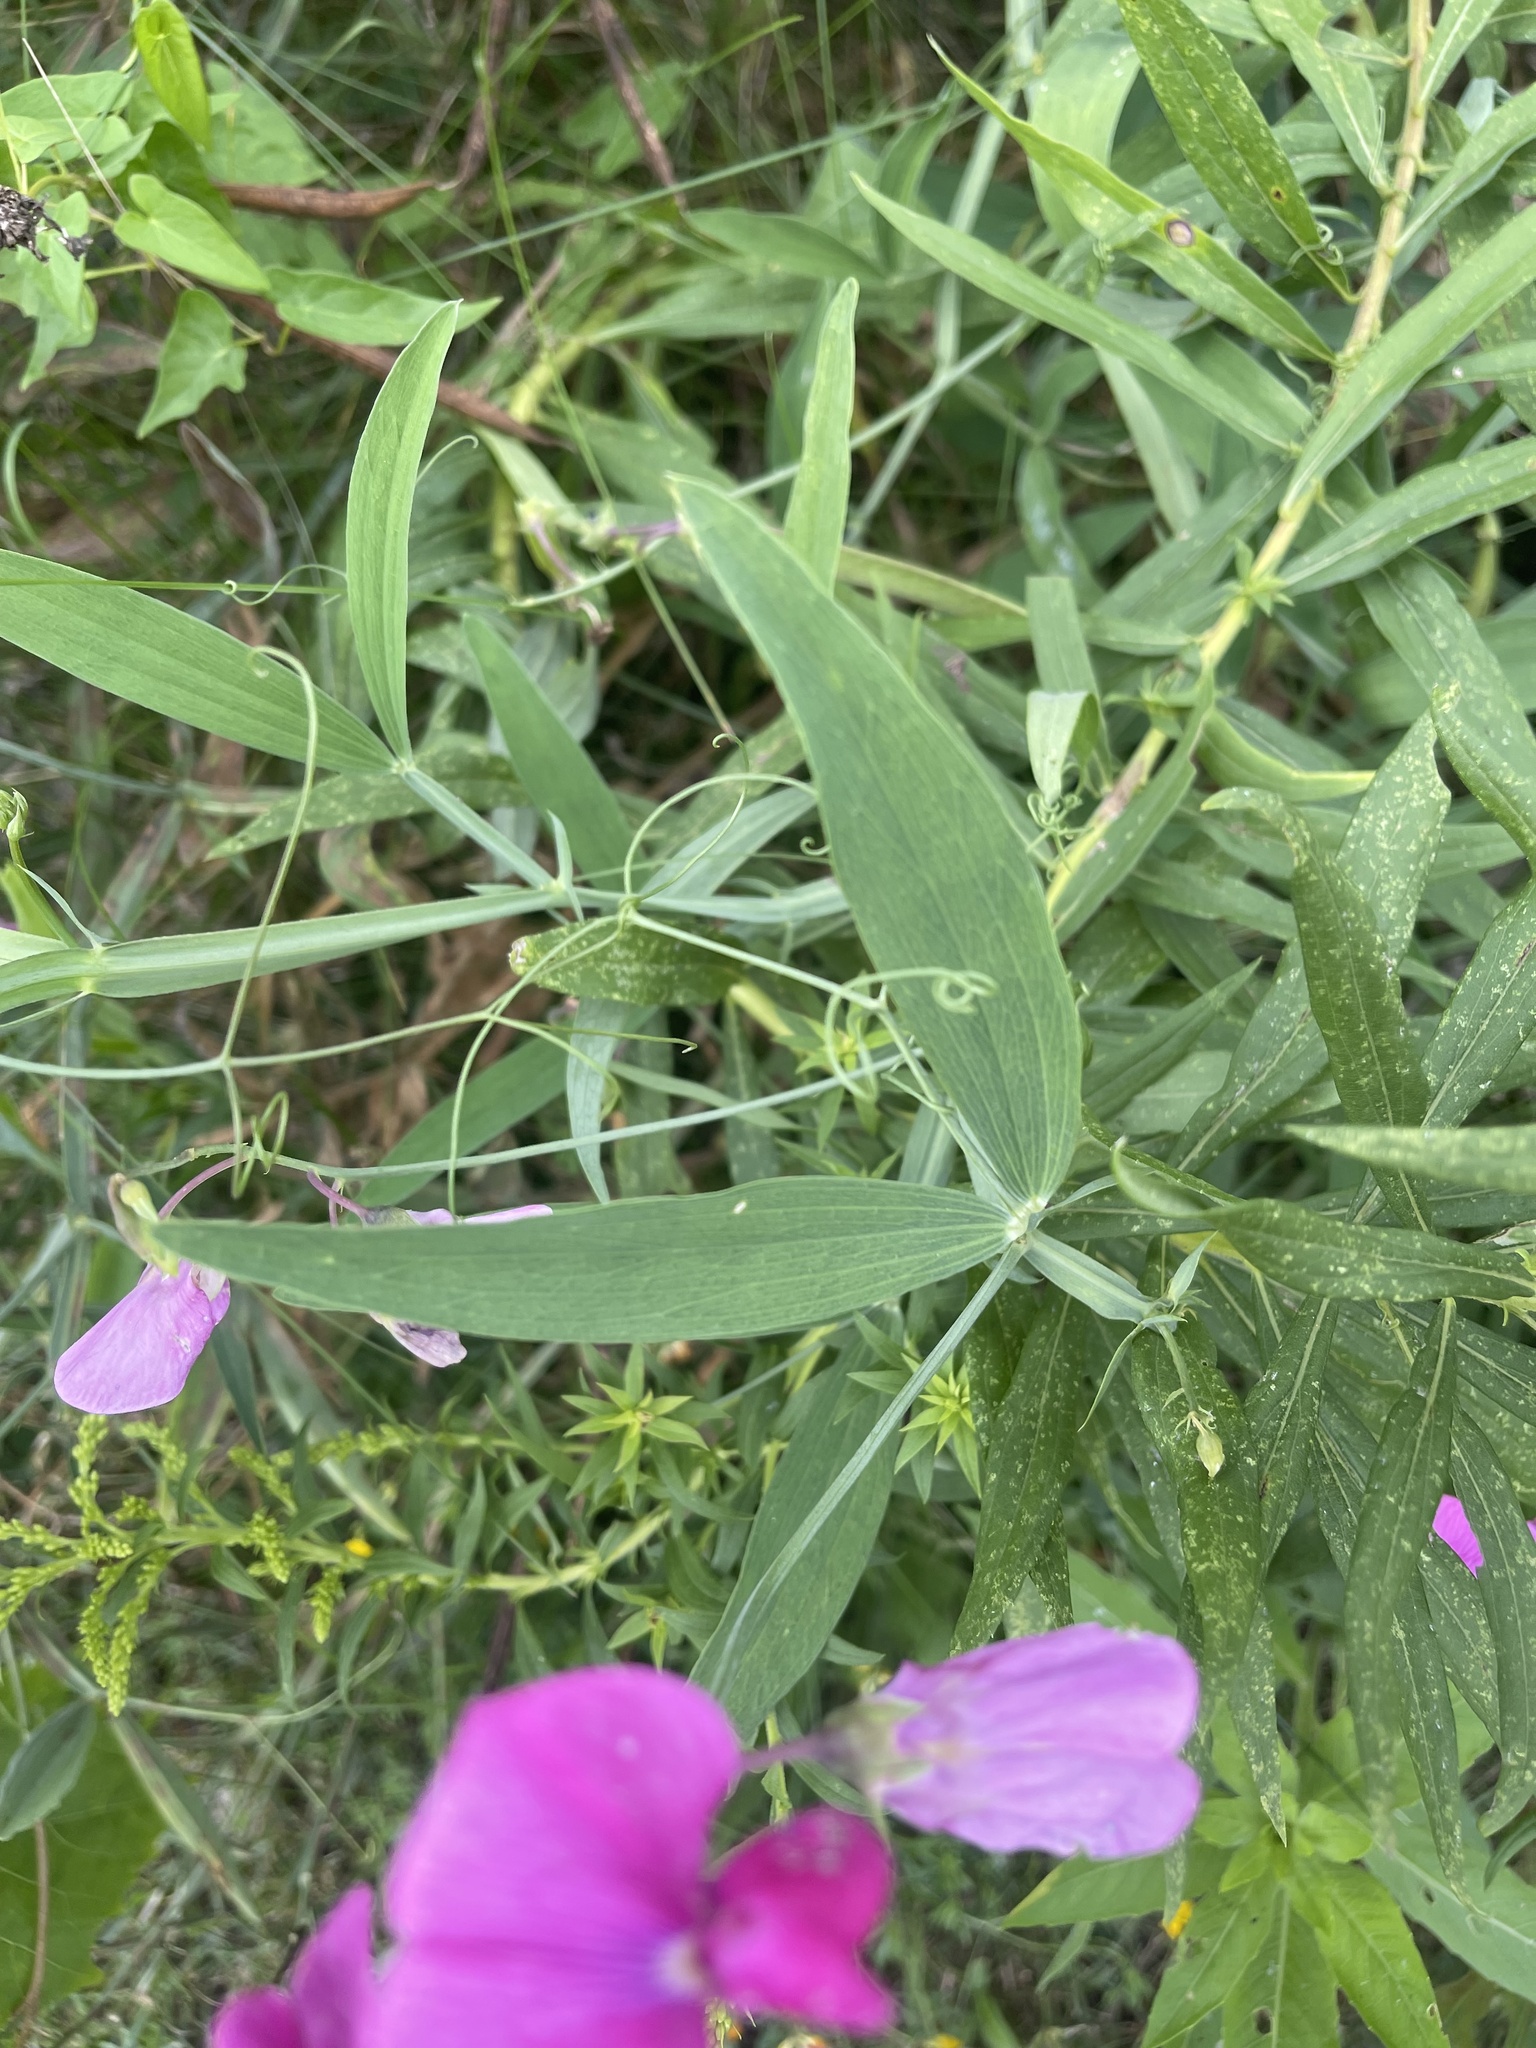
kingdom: Plantae
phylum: Tracheophyta
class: Magnoliopsida
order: Fabales
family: Fabaceae
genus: Lathyrus
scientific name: Lathyrus latifolius
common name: Perennial pea
